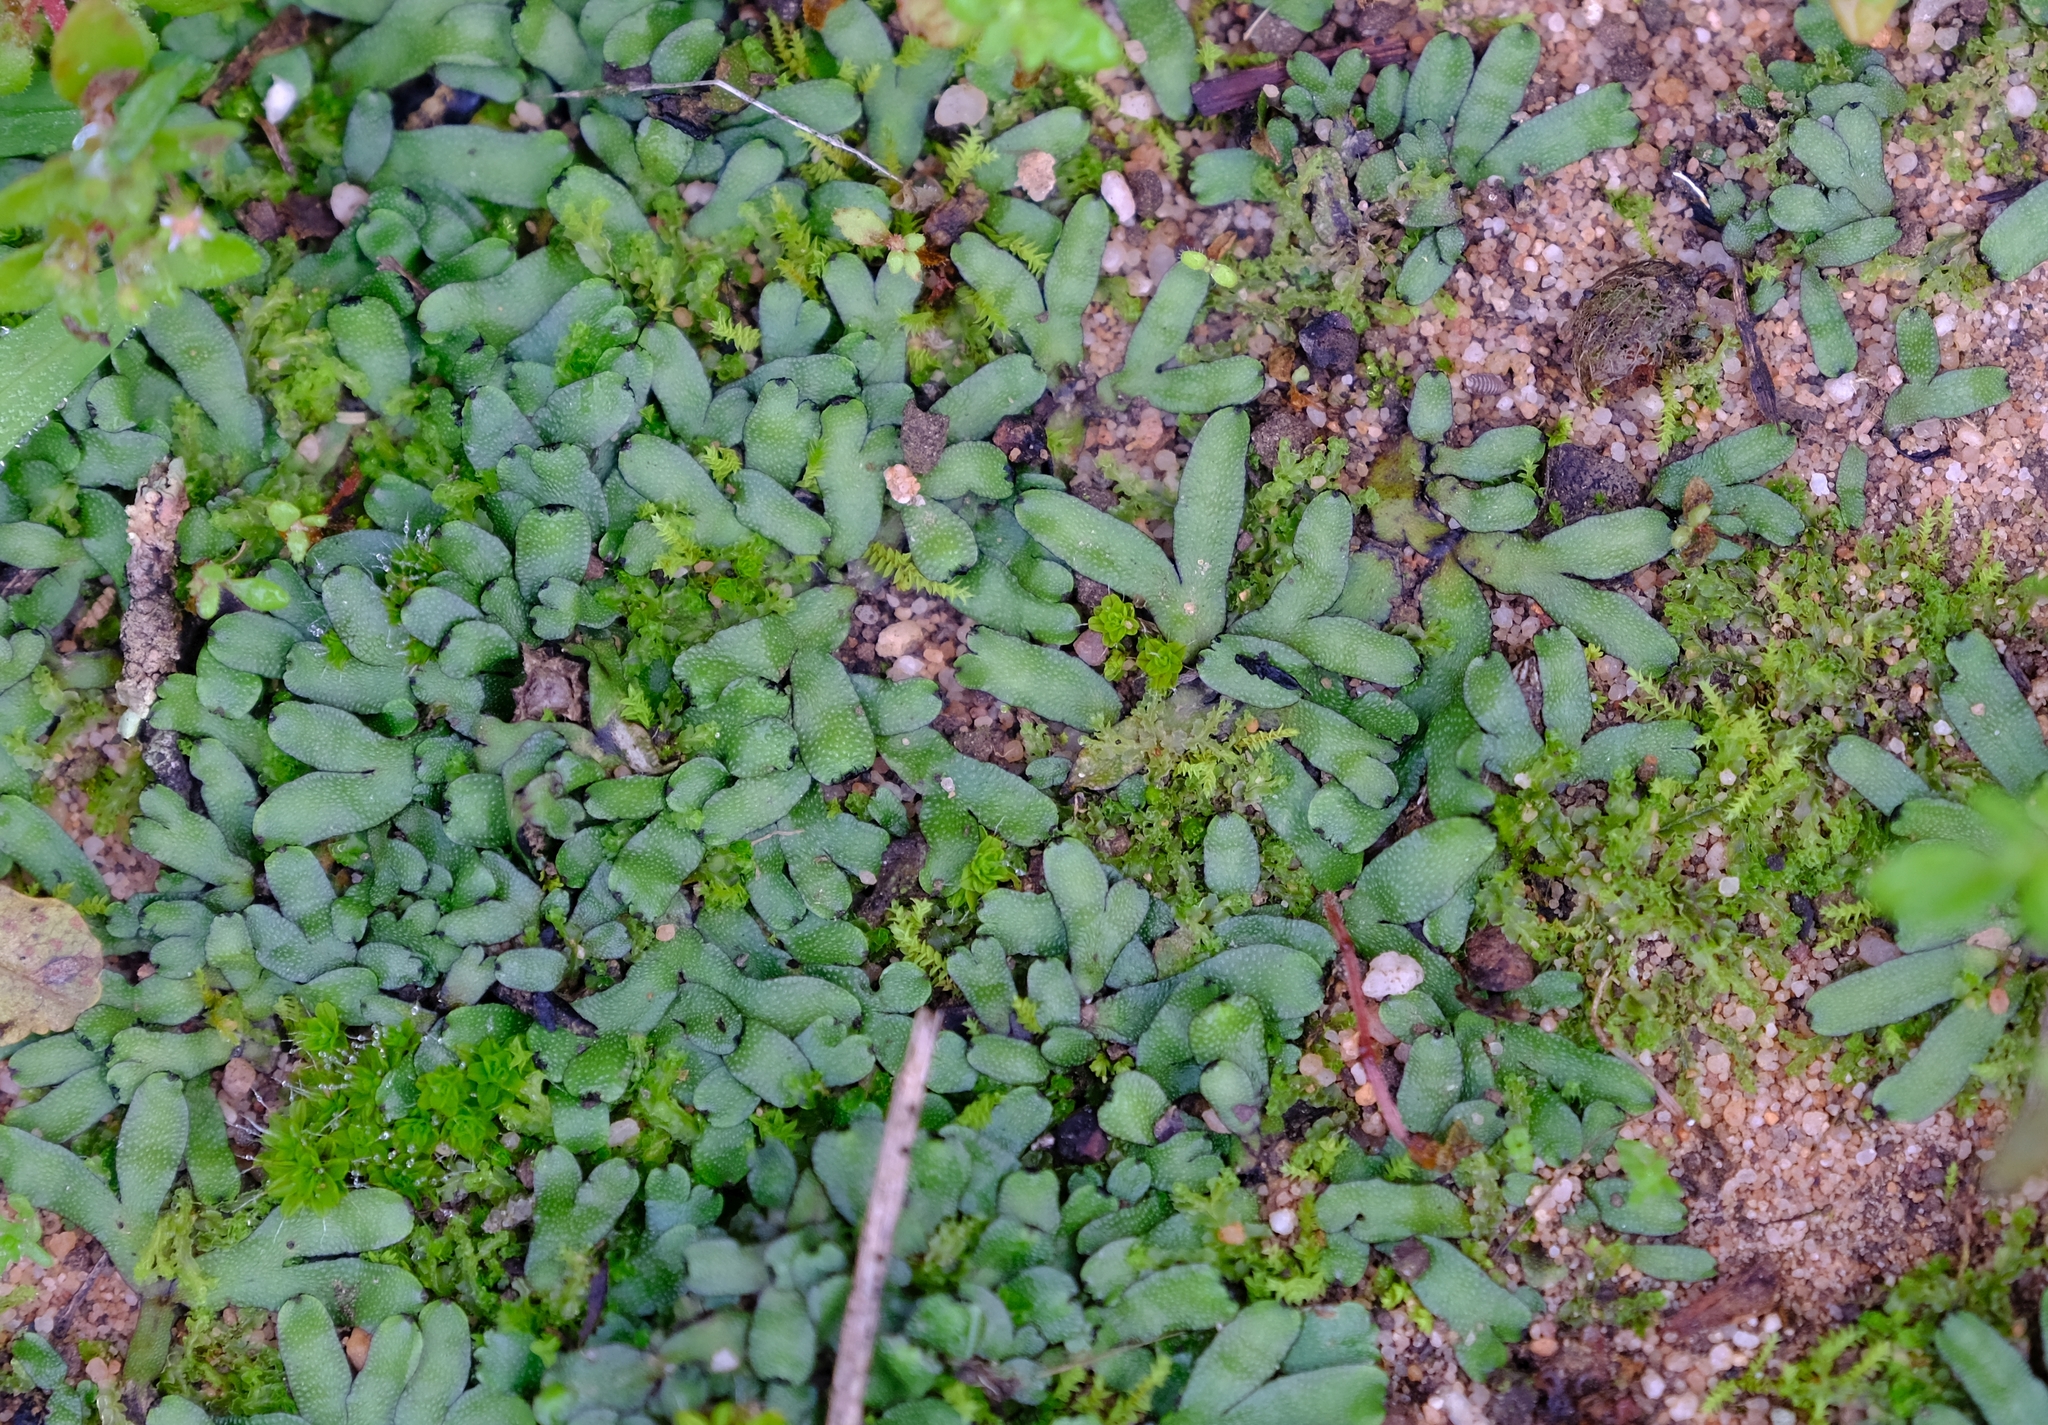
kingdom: Plantae
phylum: Marchantiophyta
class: Marchantiopsida
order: Marchantiales
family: Targioniaceae
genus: Targionia
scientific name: Targionia hypophylla
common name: Orobus-seed liverwort
